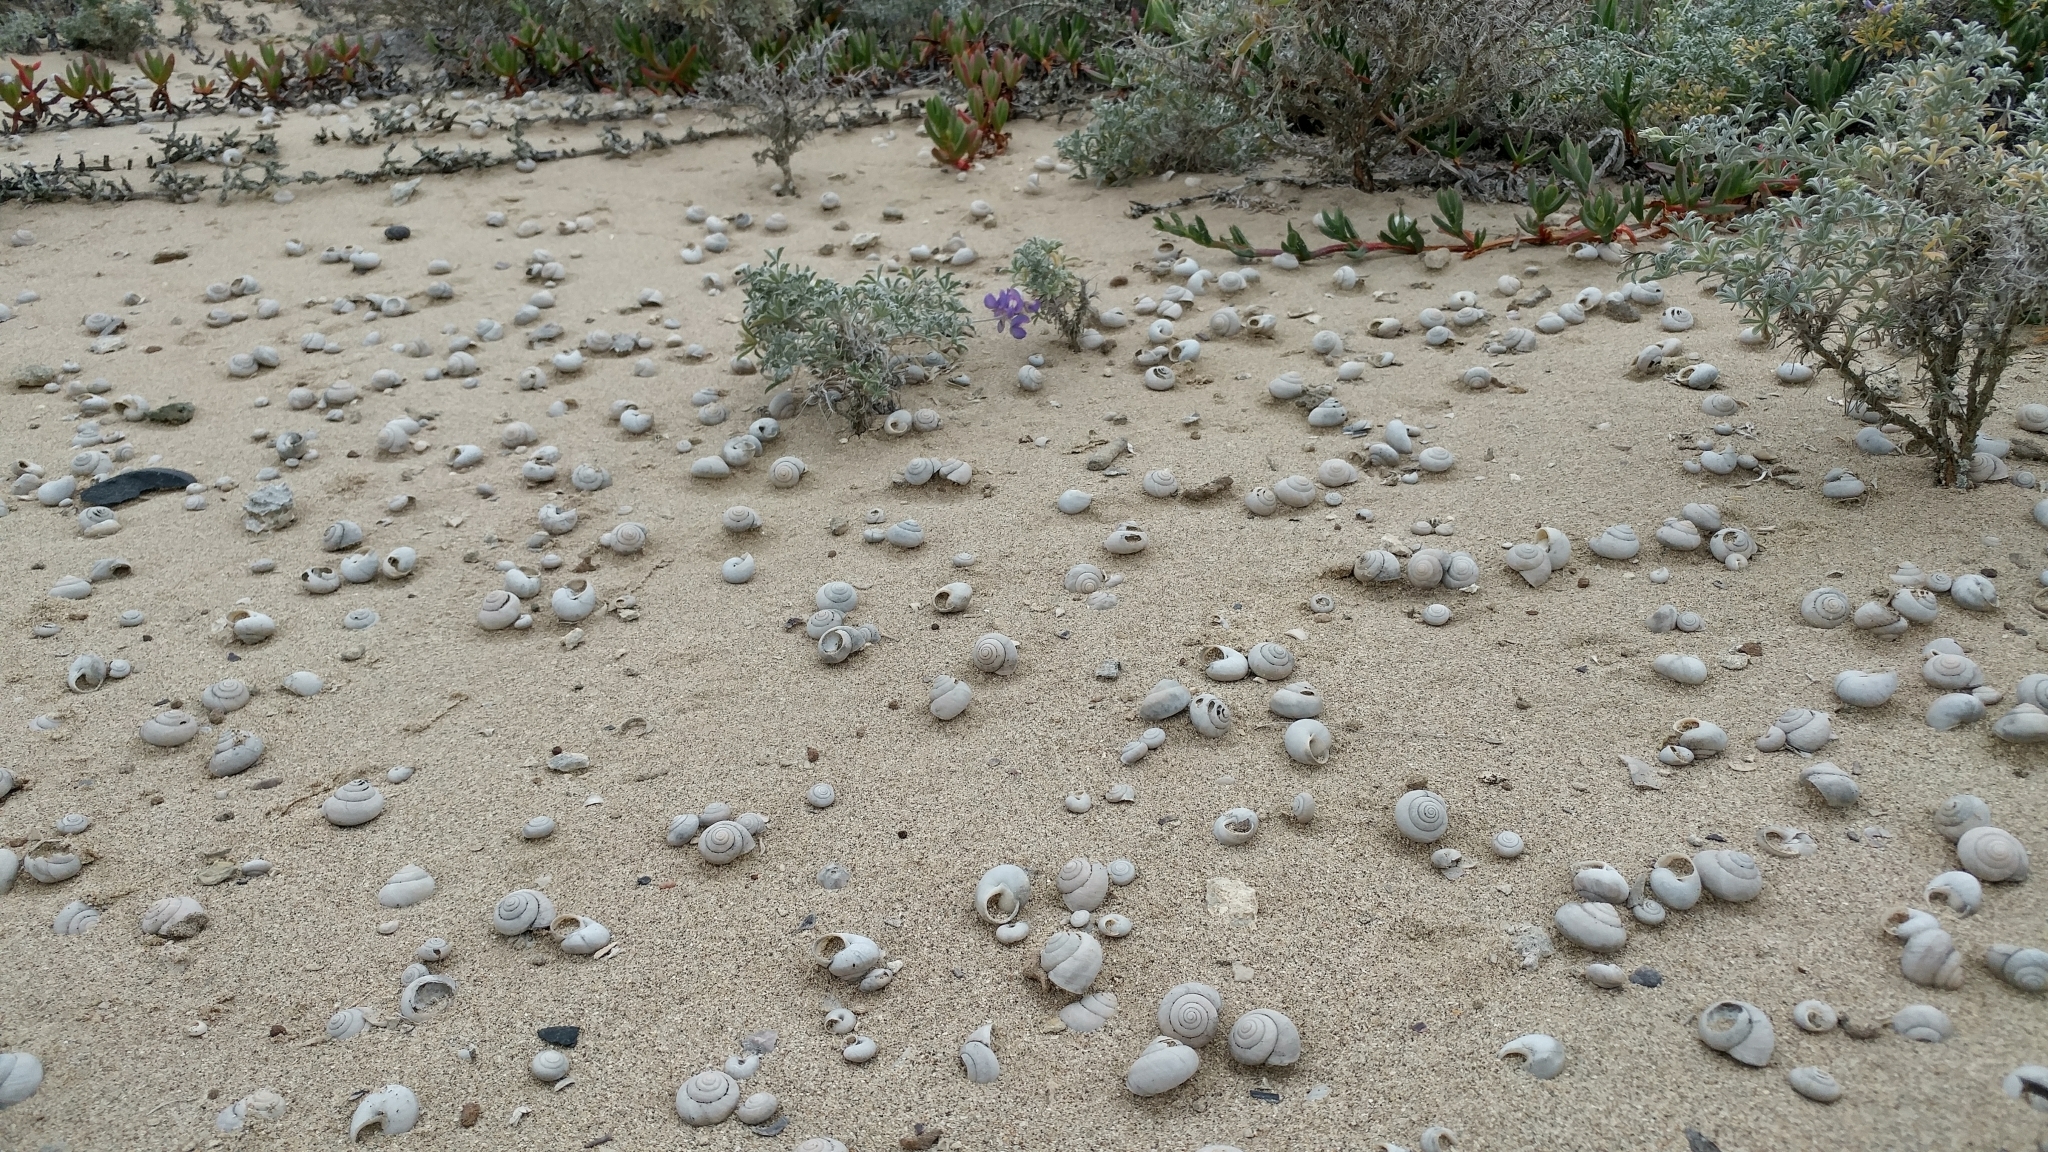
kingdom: Animalia
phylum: Mollusca
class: Gastropoda
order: Stylommatophora
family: Xanthonychidae
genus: Xerarionta
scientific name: Xerarionta tryoni
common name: Bicolor cactus snail
